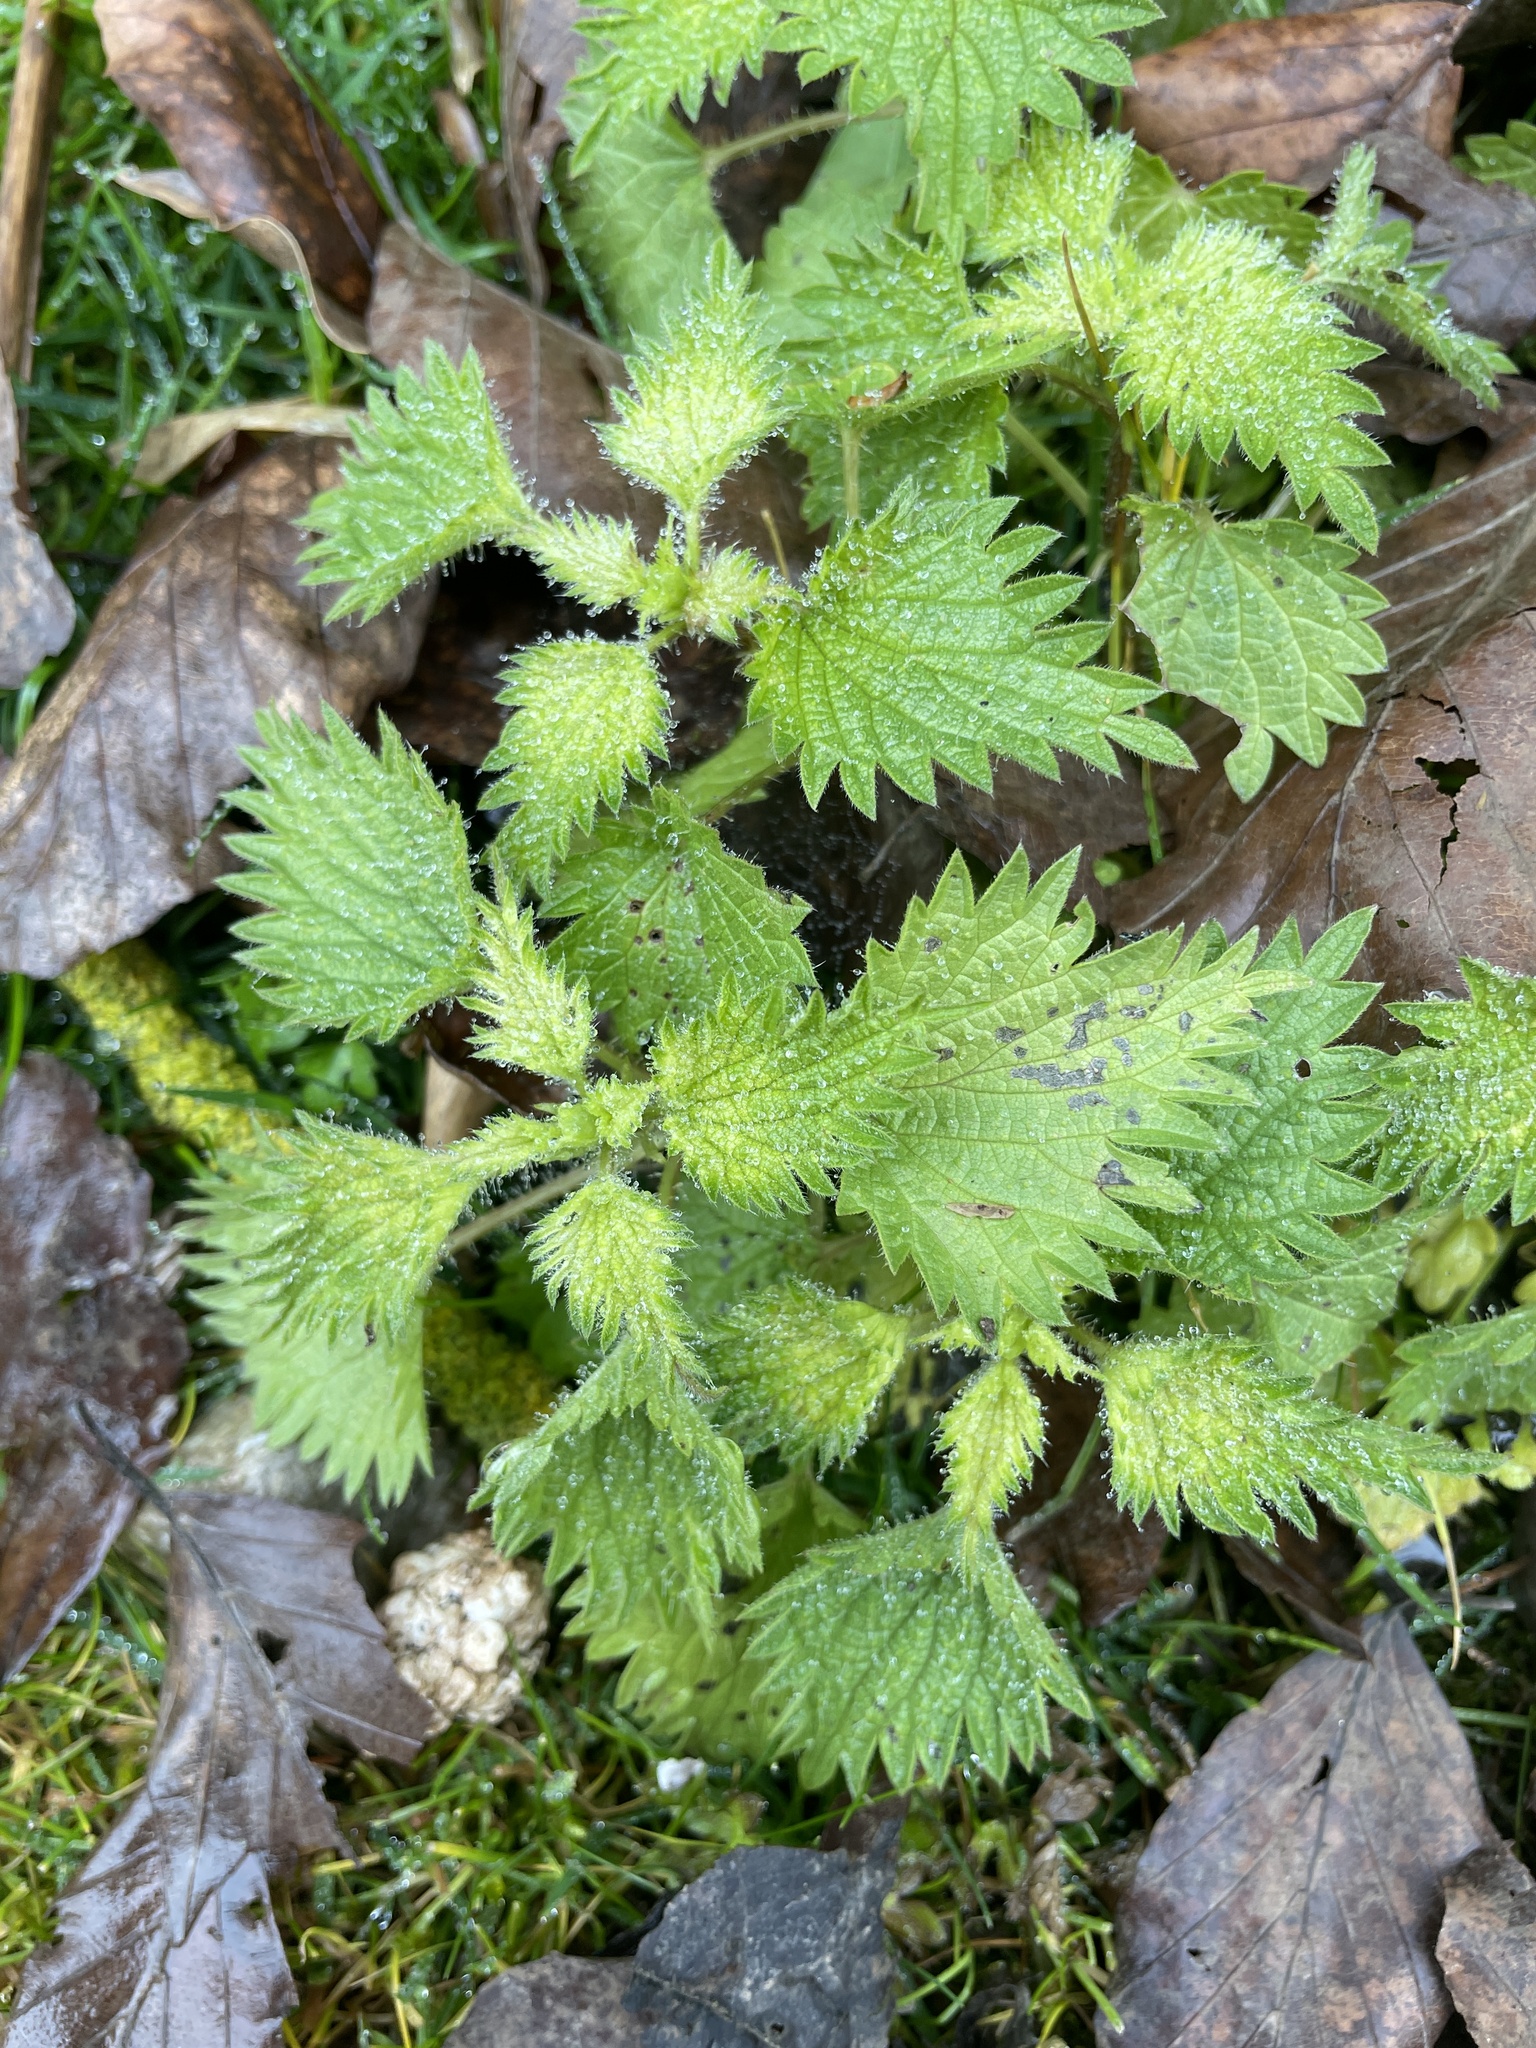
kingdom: Plantae
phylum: Tracheophyta
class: Magnoliopsida
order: Rosales
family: Urticaceae
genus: Urtica
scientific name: Urtica dioica
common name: Common nettle
